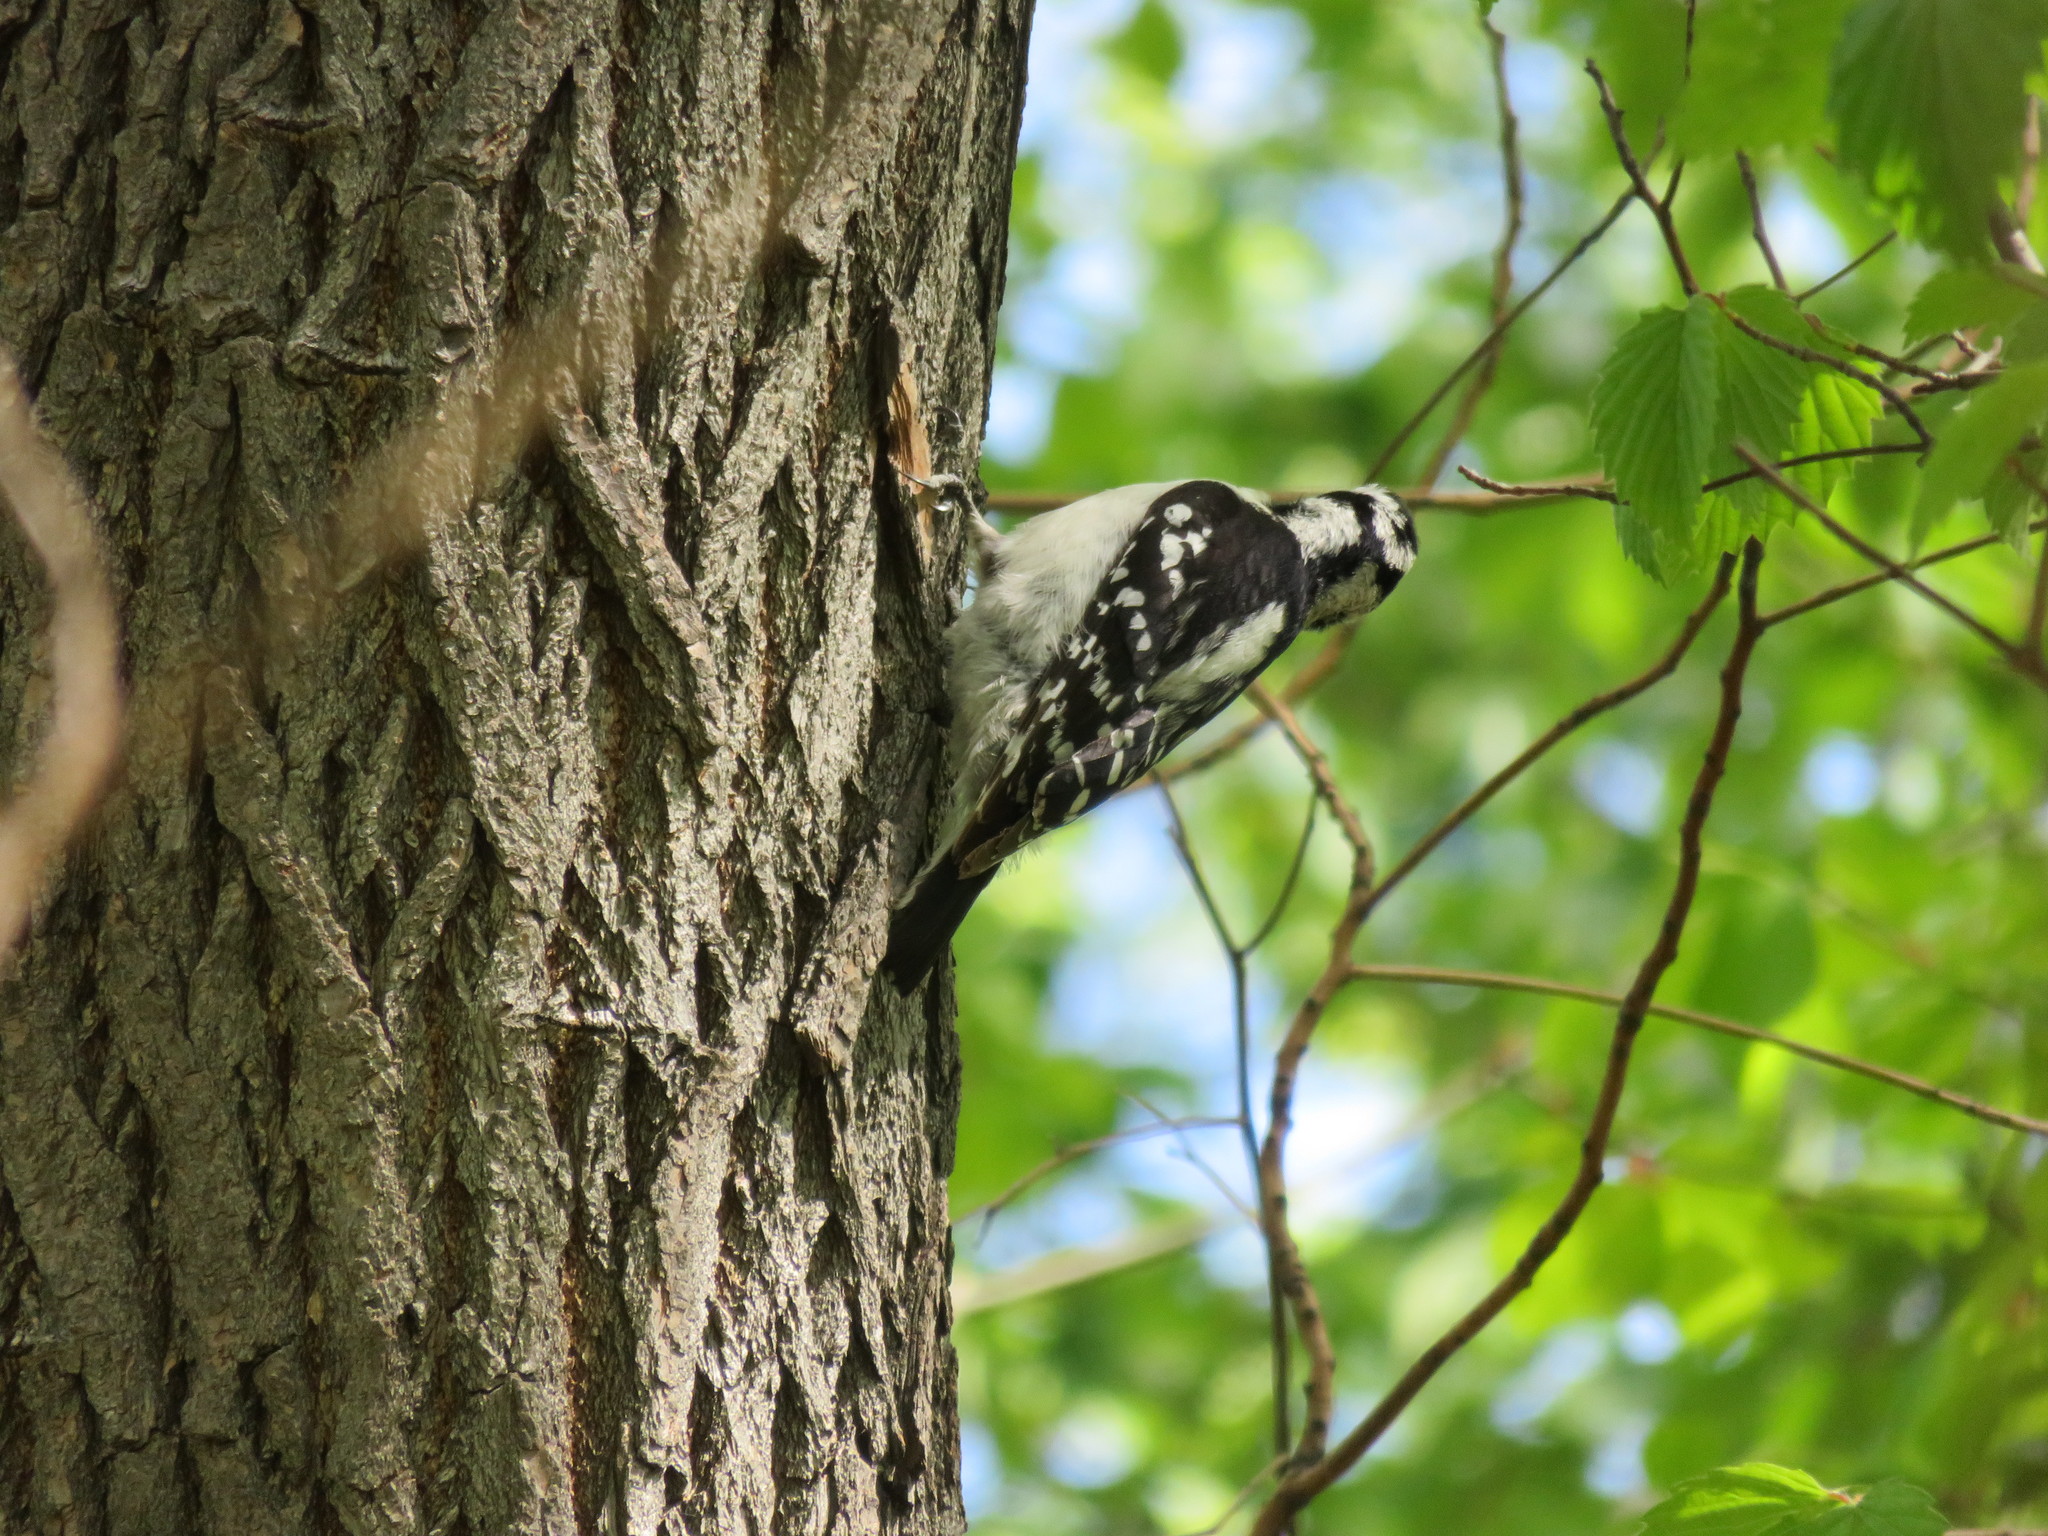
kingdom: Animalia
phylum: Chordata
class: Aves
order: Piciformes
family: Picidae
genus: Dryobates
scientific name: Dryobates pubescens
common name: Downy woodpecker
